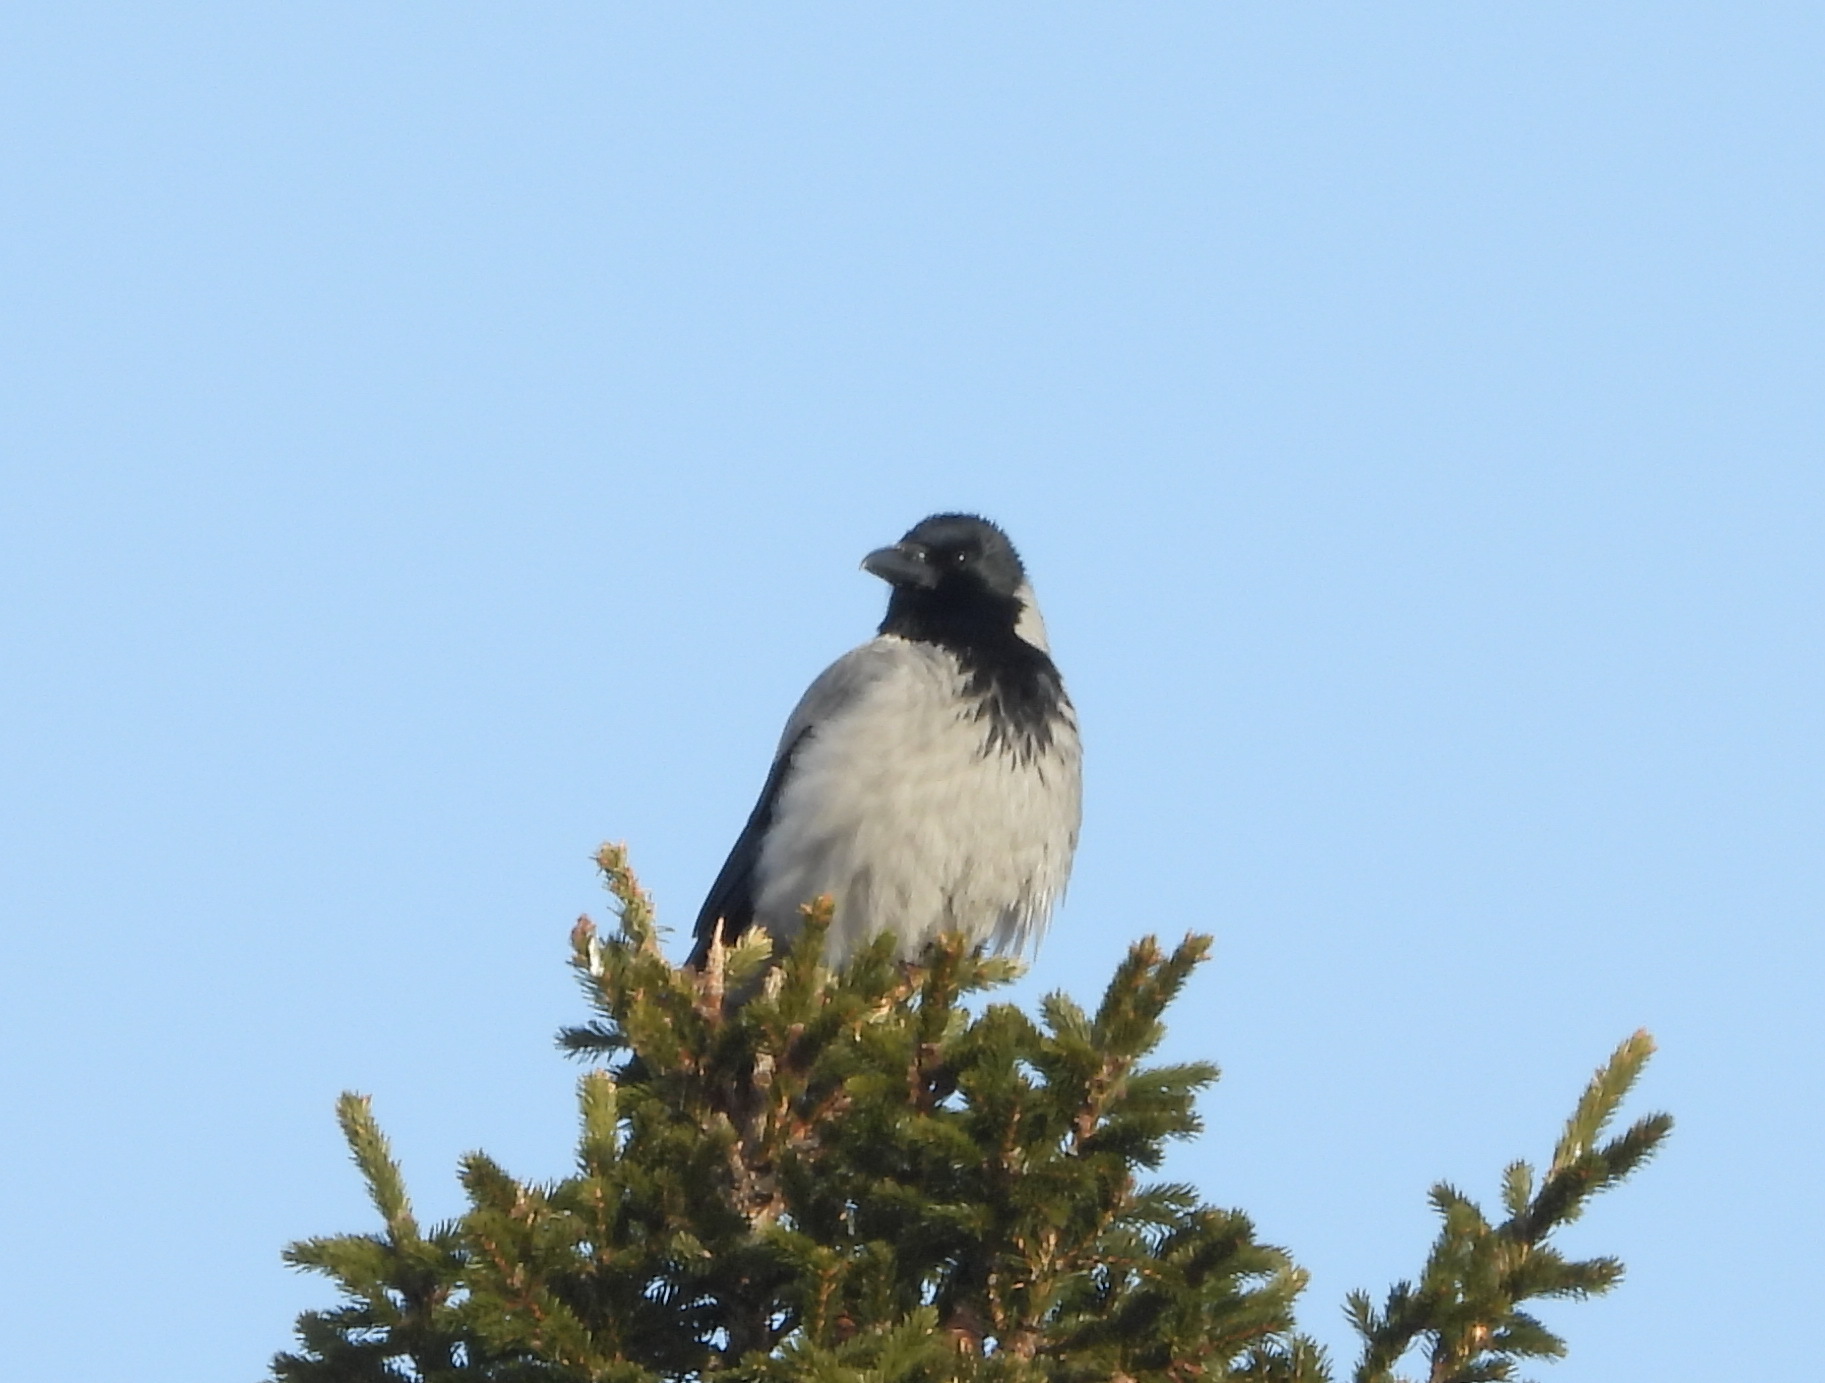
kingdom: Animalia
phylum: Chordata
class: Aves
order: Passeriformes
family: Corvidae
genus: Corvus
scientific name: Corvus cornix
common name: Hooded crow
